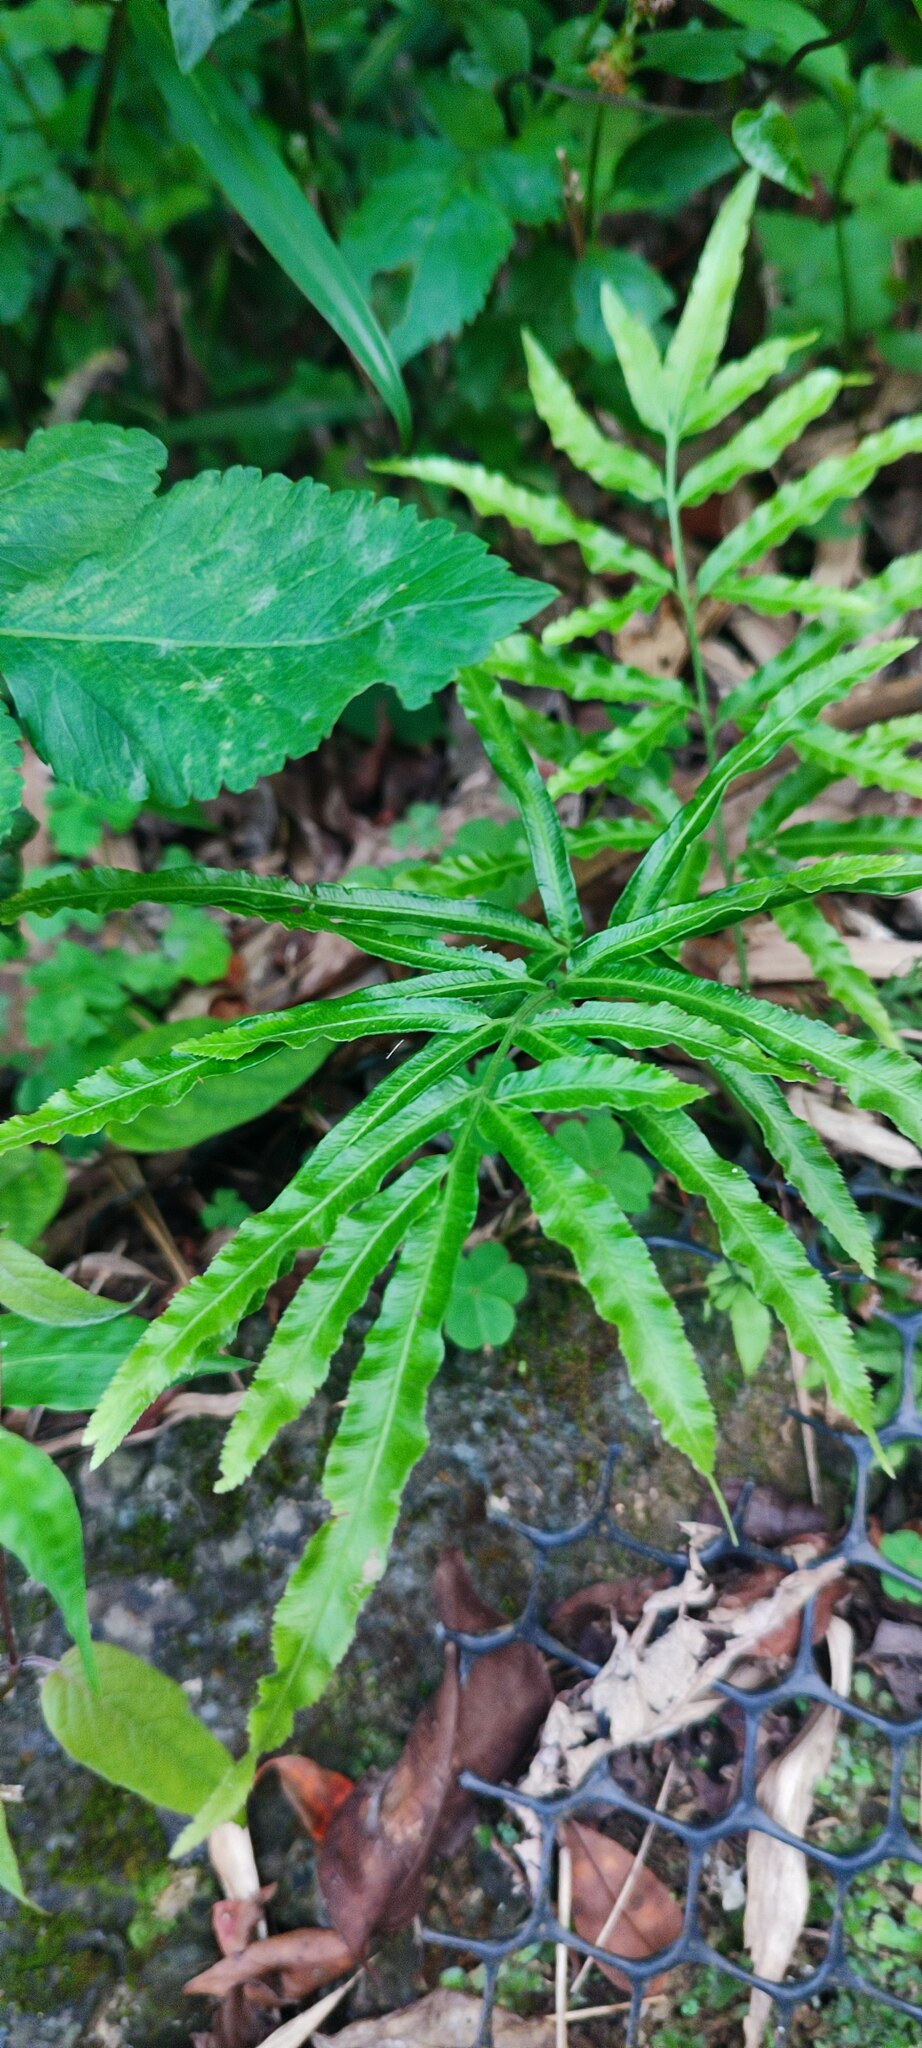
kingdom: Plantae
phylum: Tracheophyta
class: Polypodiopsida
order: Polypodiales
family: Pteridaceae
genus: Pteris
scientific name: Pteris ensiformis
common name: Sword brake
